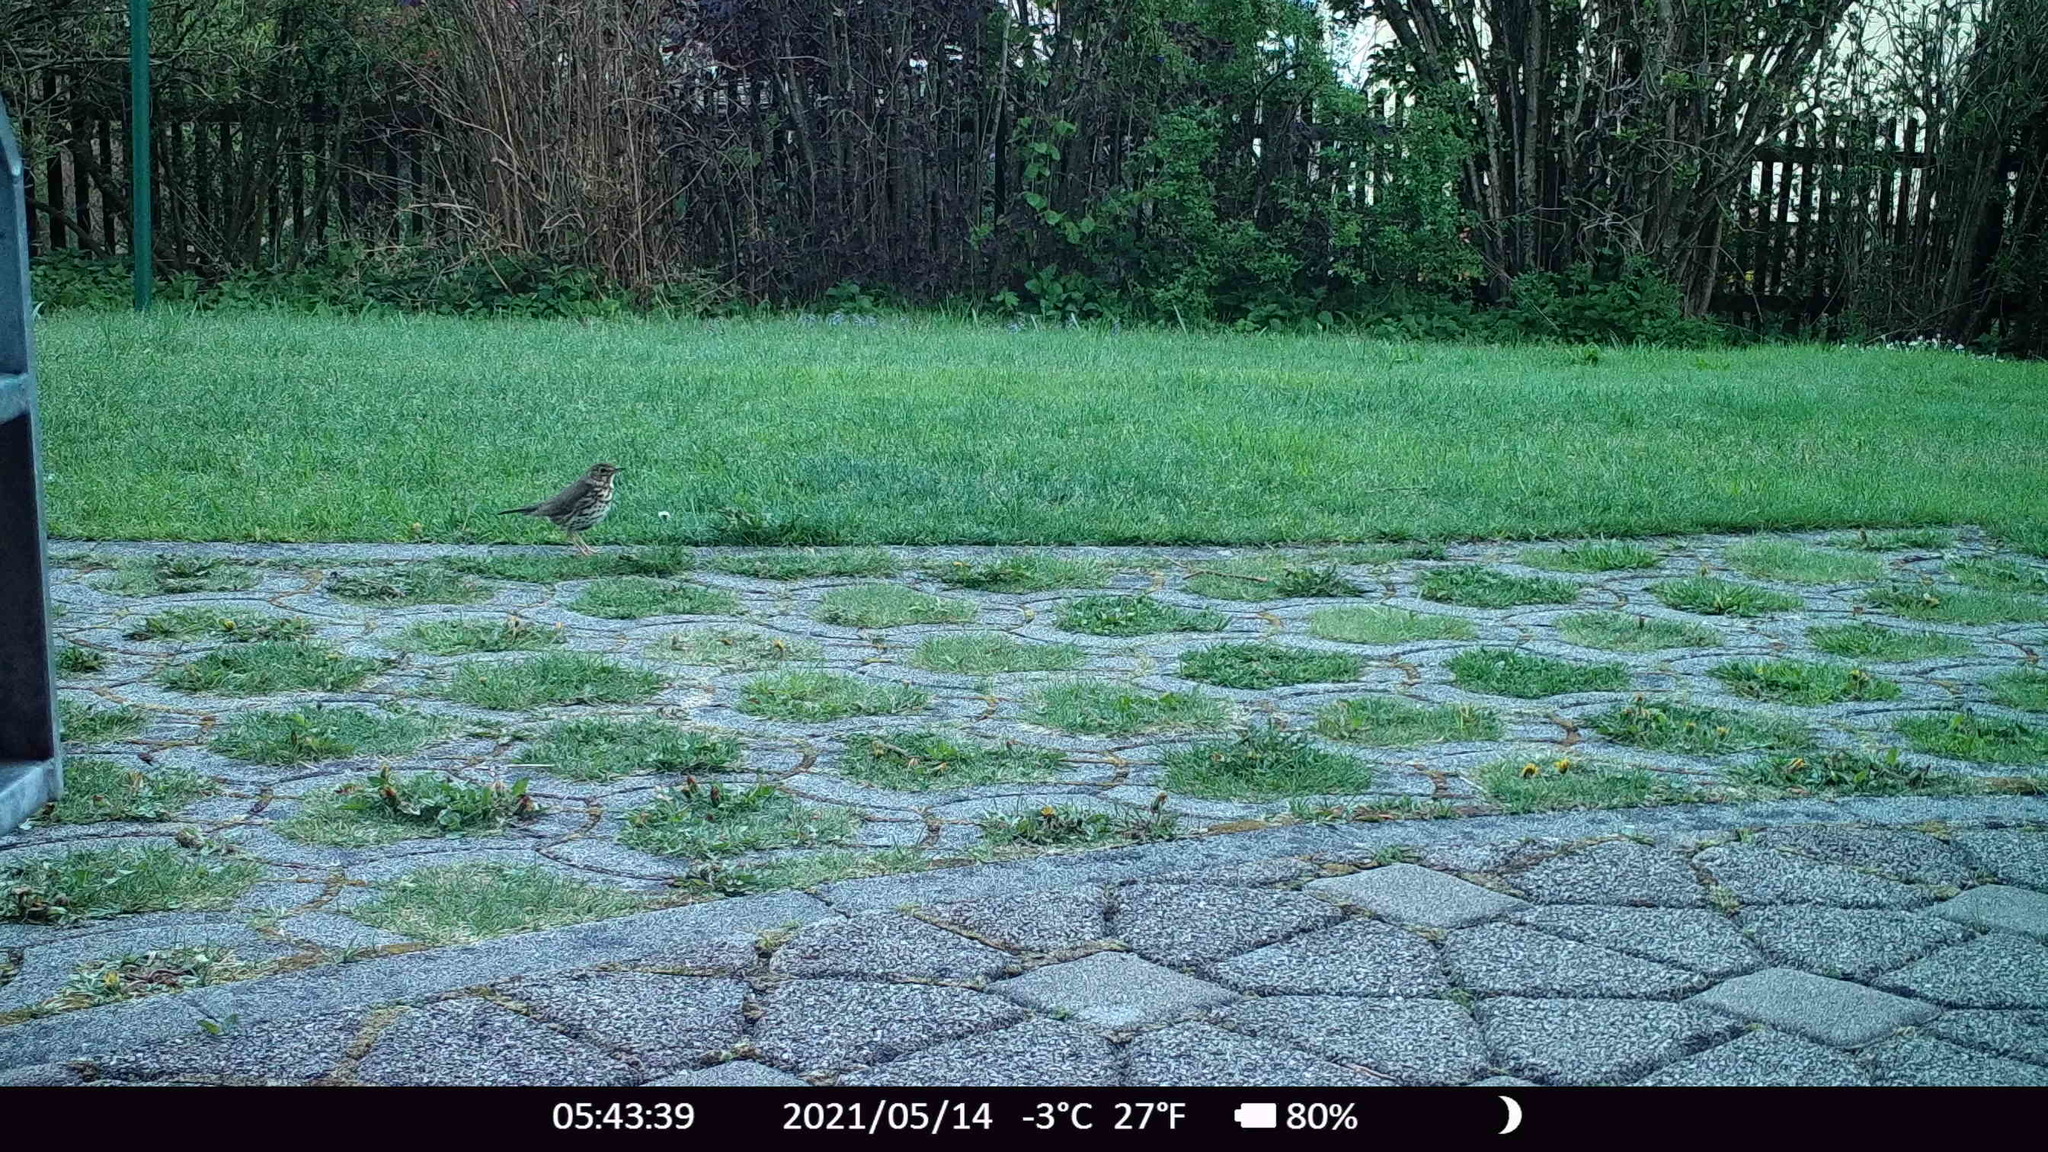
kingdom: Animalia
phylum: Chordata
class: Aves
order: Passeriformes
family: Turdidae
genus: Turdus
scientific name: Turdus philomelos
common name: Song thrush
